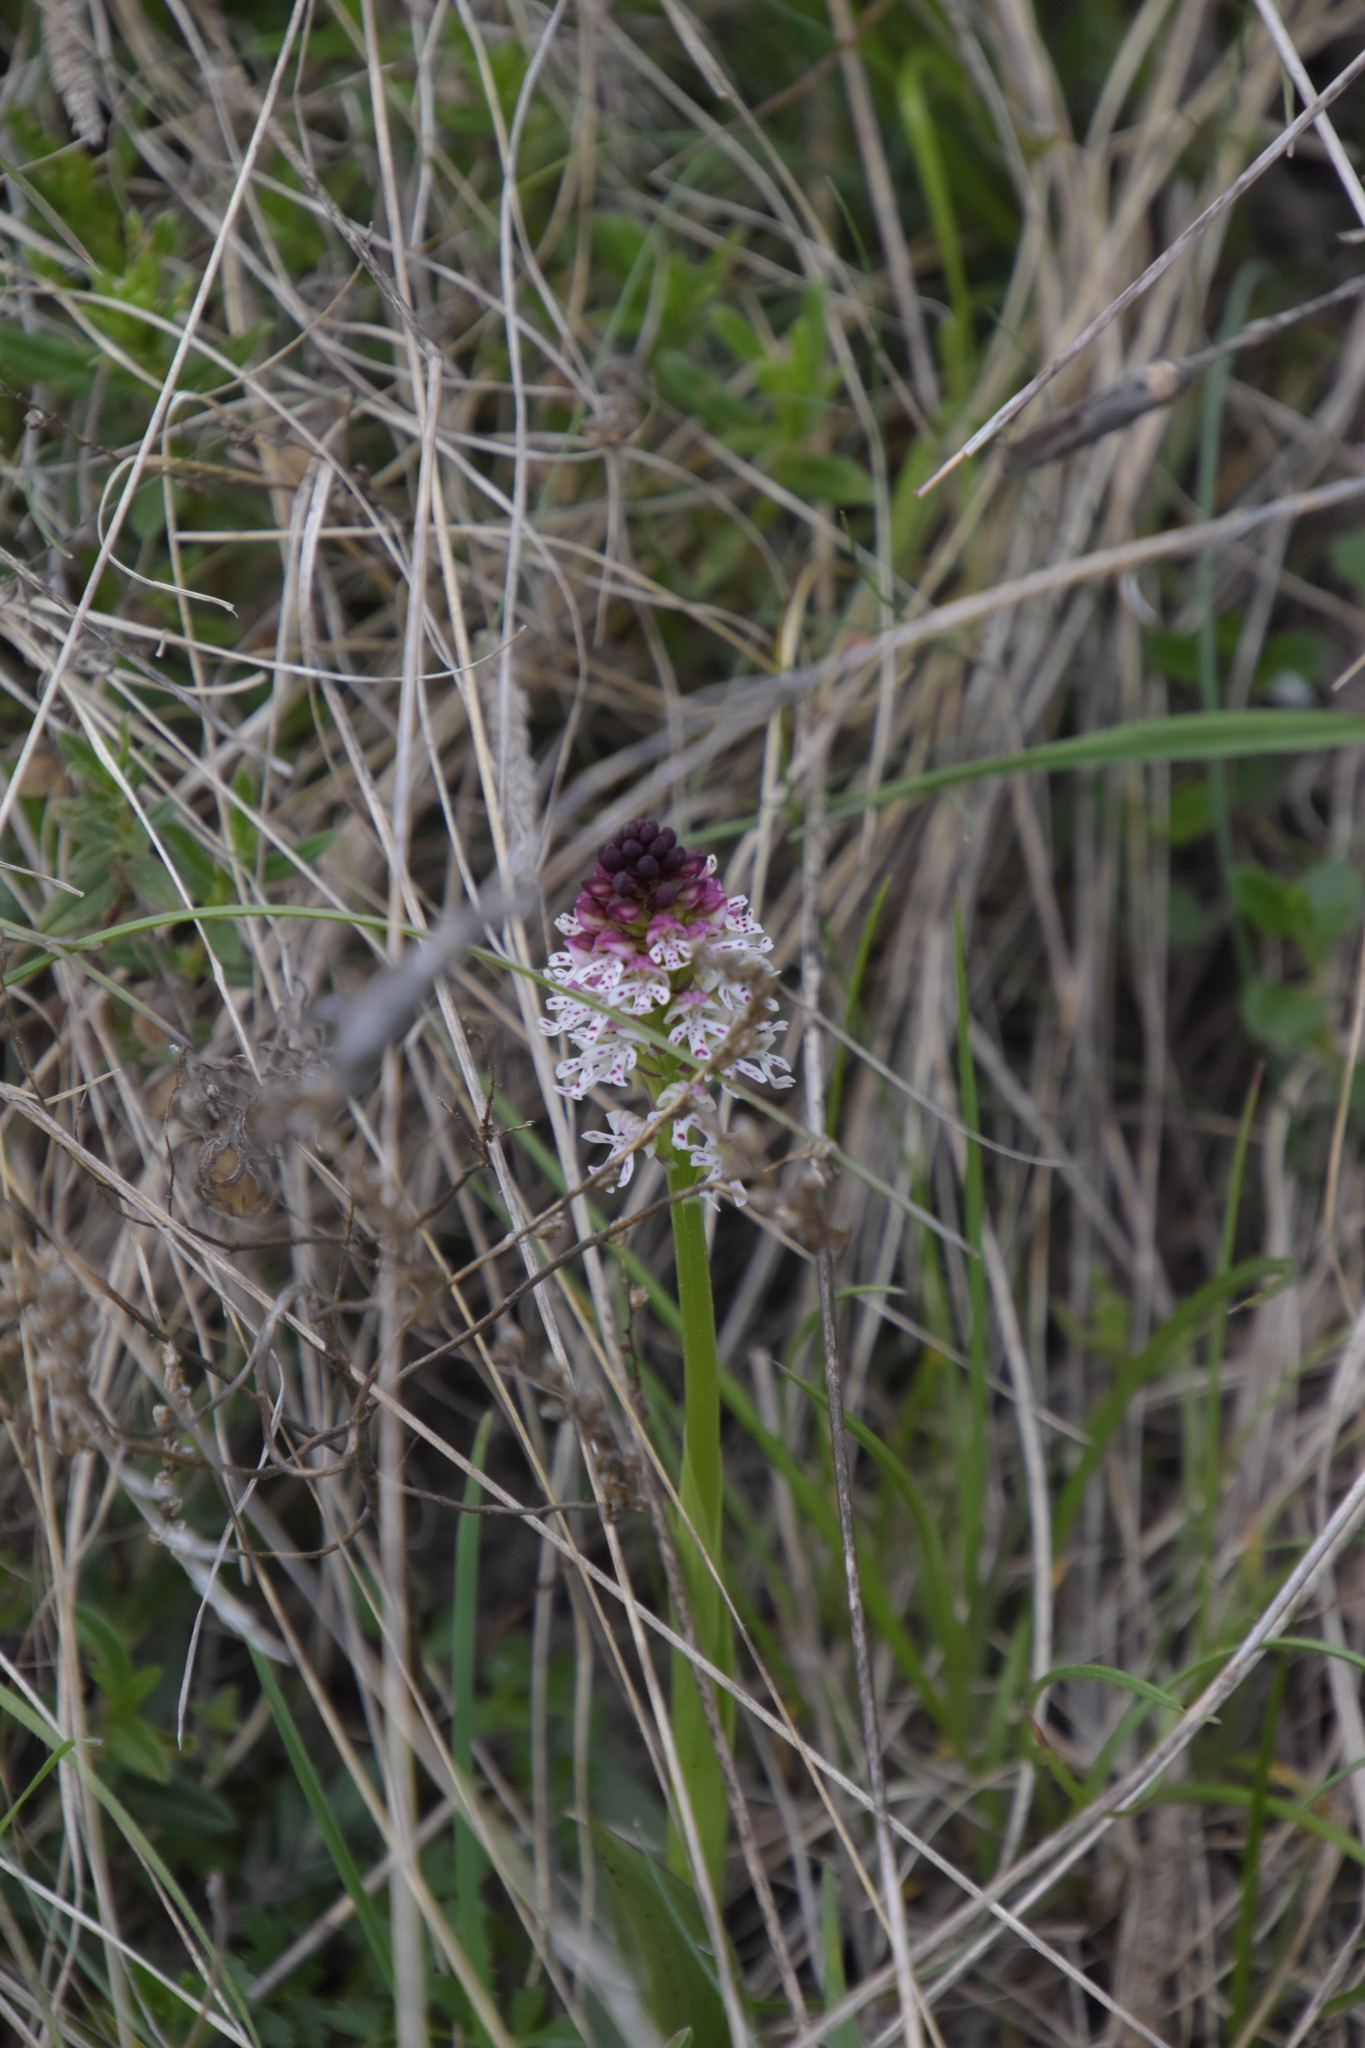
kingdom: Plantae
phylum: Tracheophyta
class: Liliopsida
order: Asparagales
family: Orchidaceae
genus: Neotinea
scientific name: Neotinea ustulata
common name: Burnt orchid
